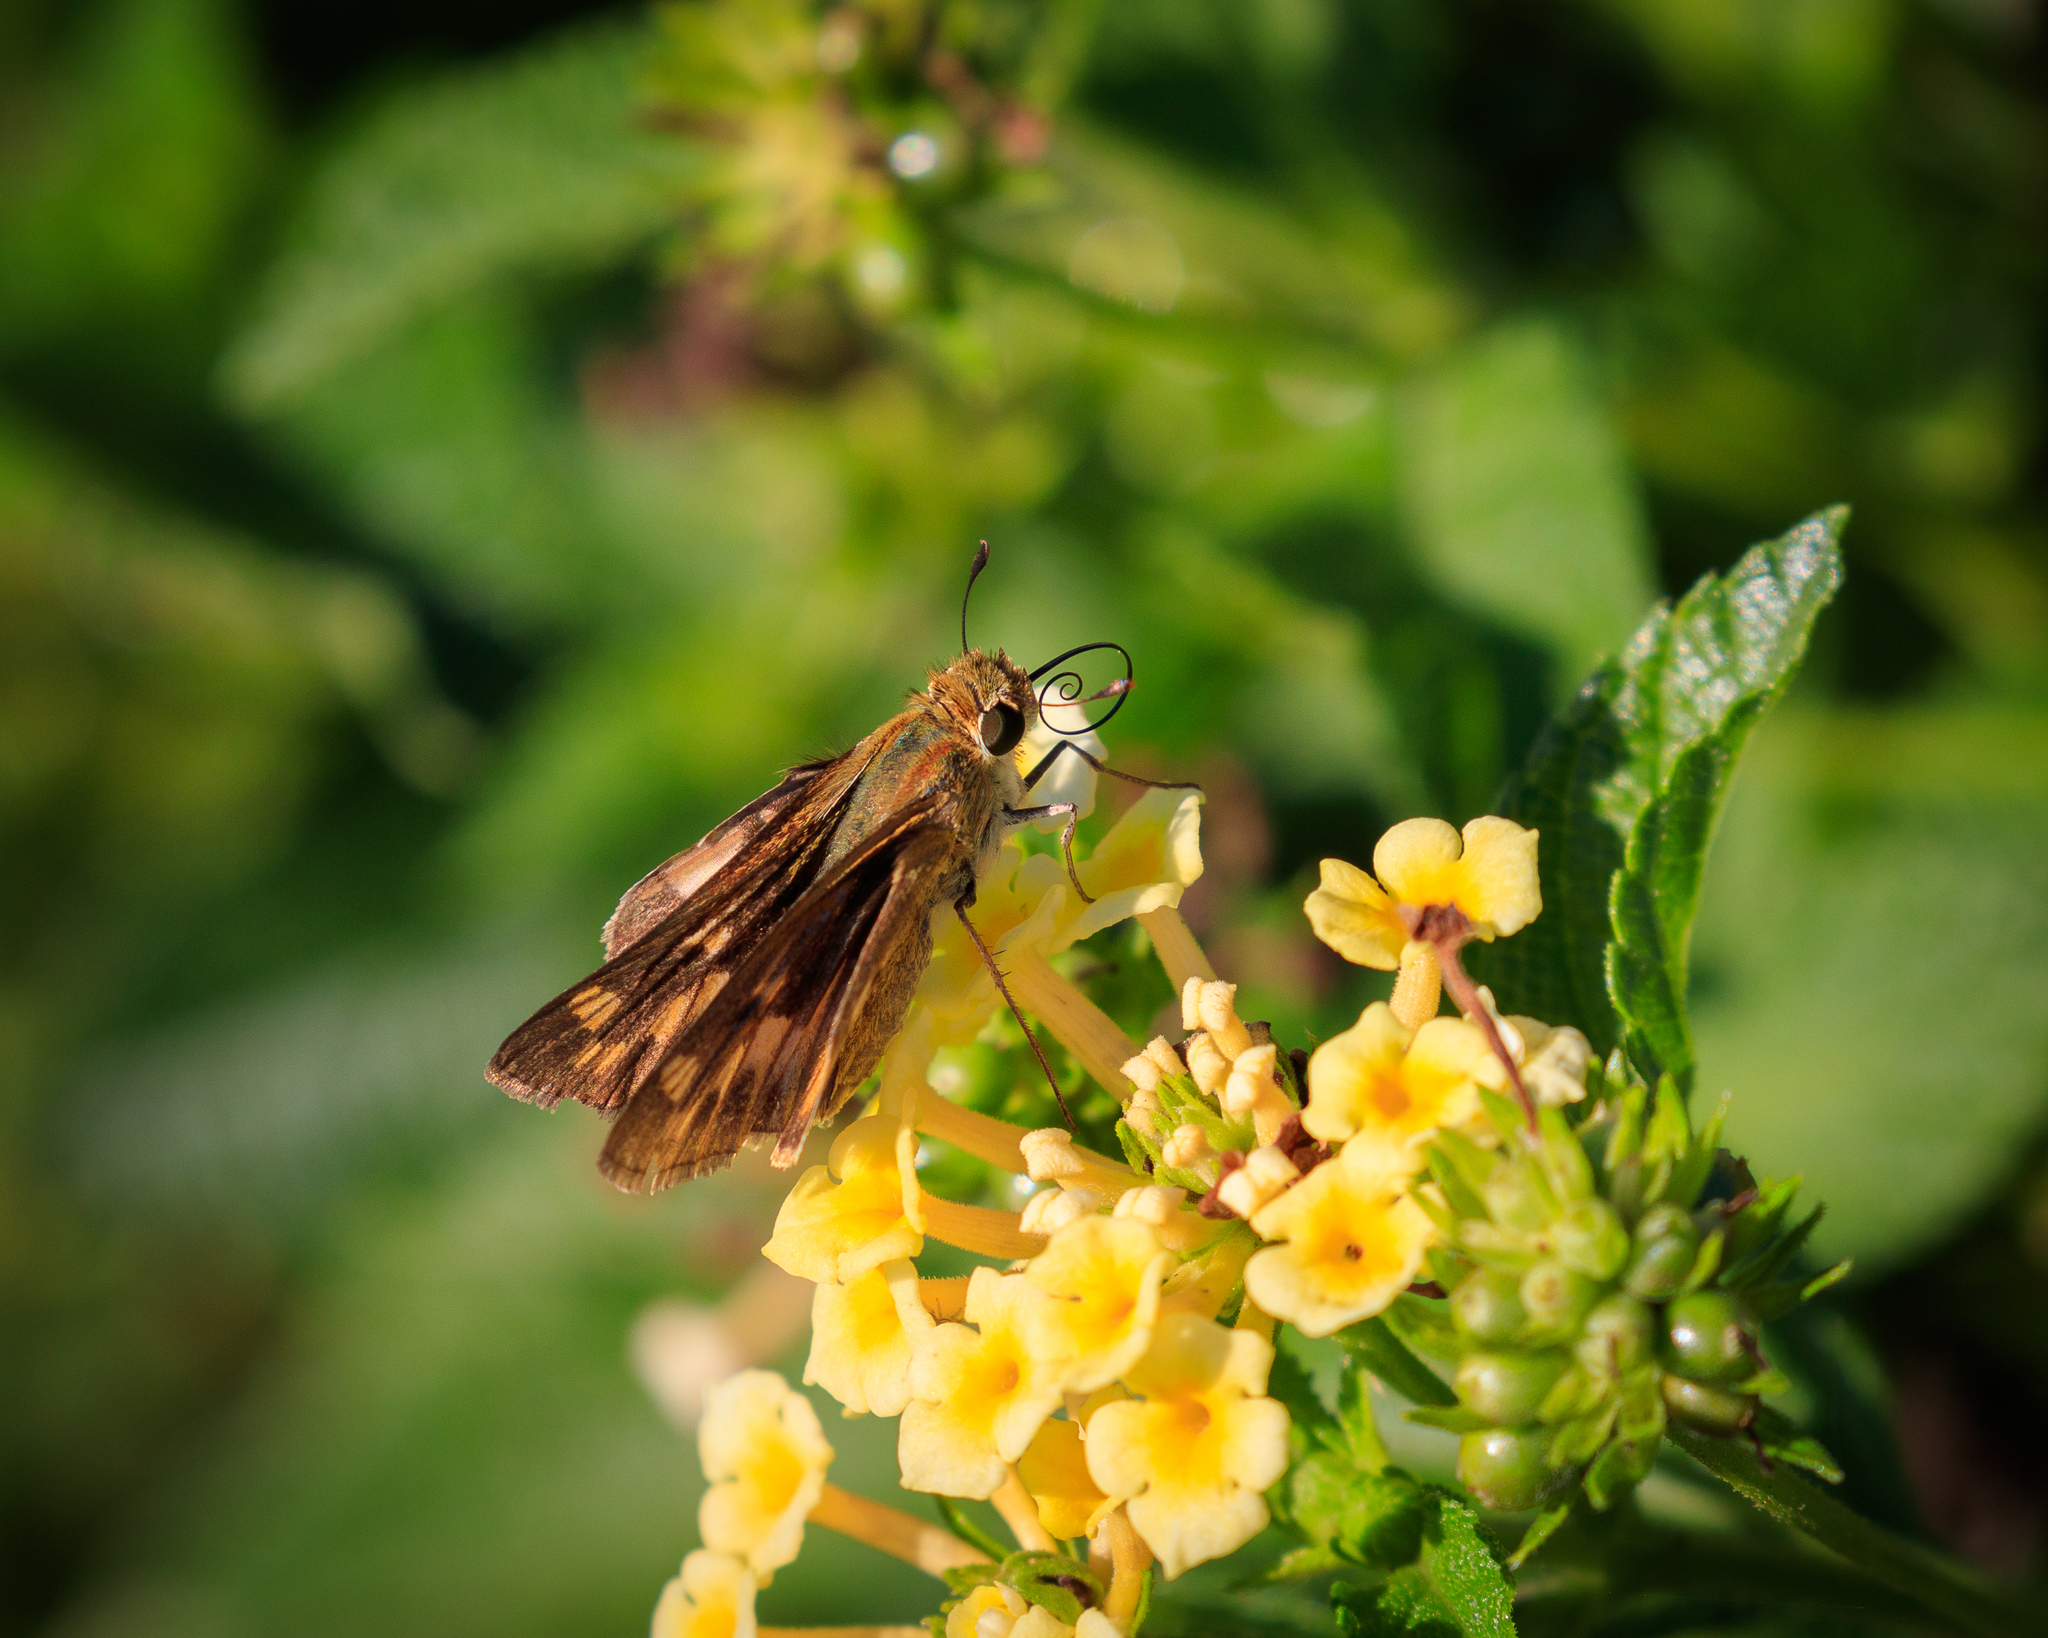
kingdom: Animalia
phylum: Arthropoda
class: Insecta
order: Lepidoptera
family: Hesperiidae
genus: Hylephila
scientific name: Hylephila phyleus
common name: Fiery skipper
